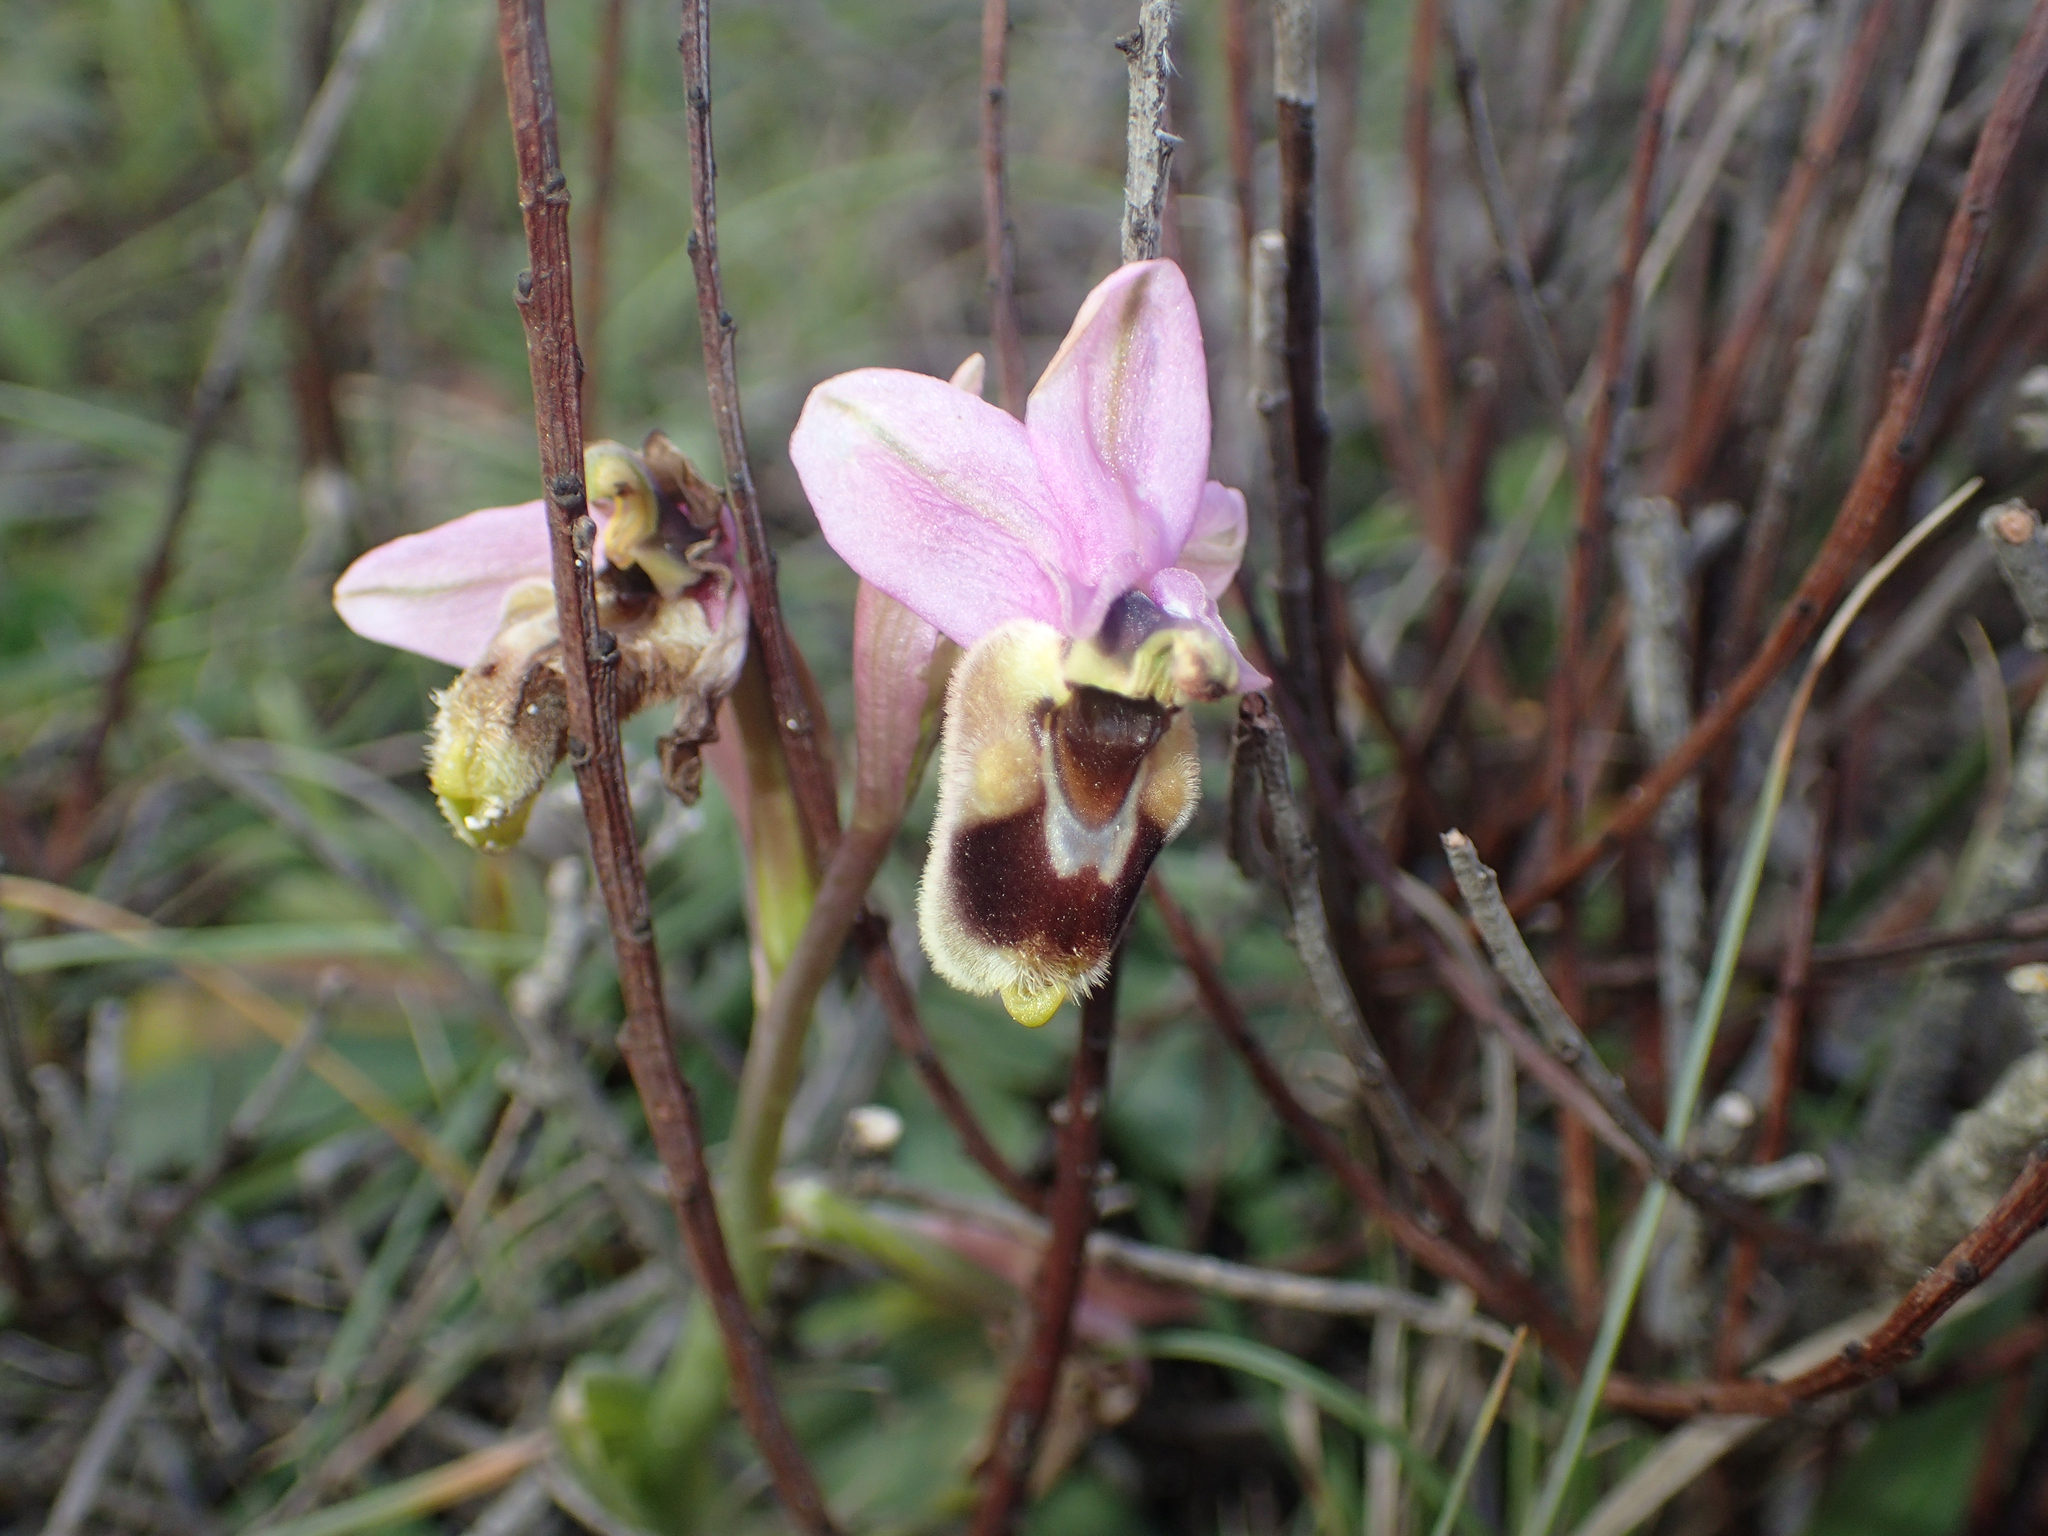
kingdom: Plantae
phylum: Tracheophyta
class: Liliopsida
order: Asparagales
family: Orchidaceae
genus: Ophrys
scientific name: Ophrys tenthredinifera
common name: Sawfly orchid
